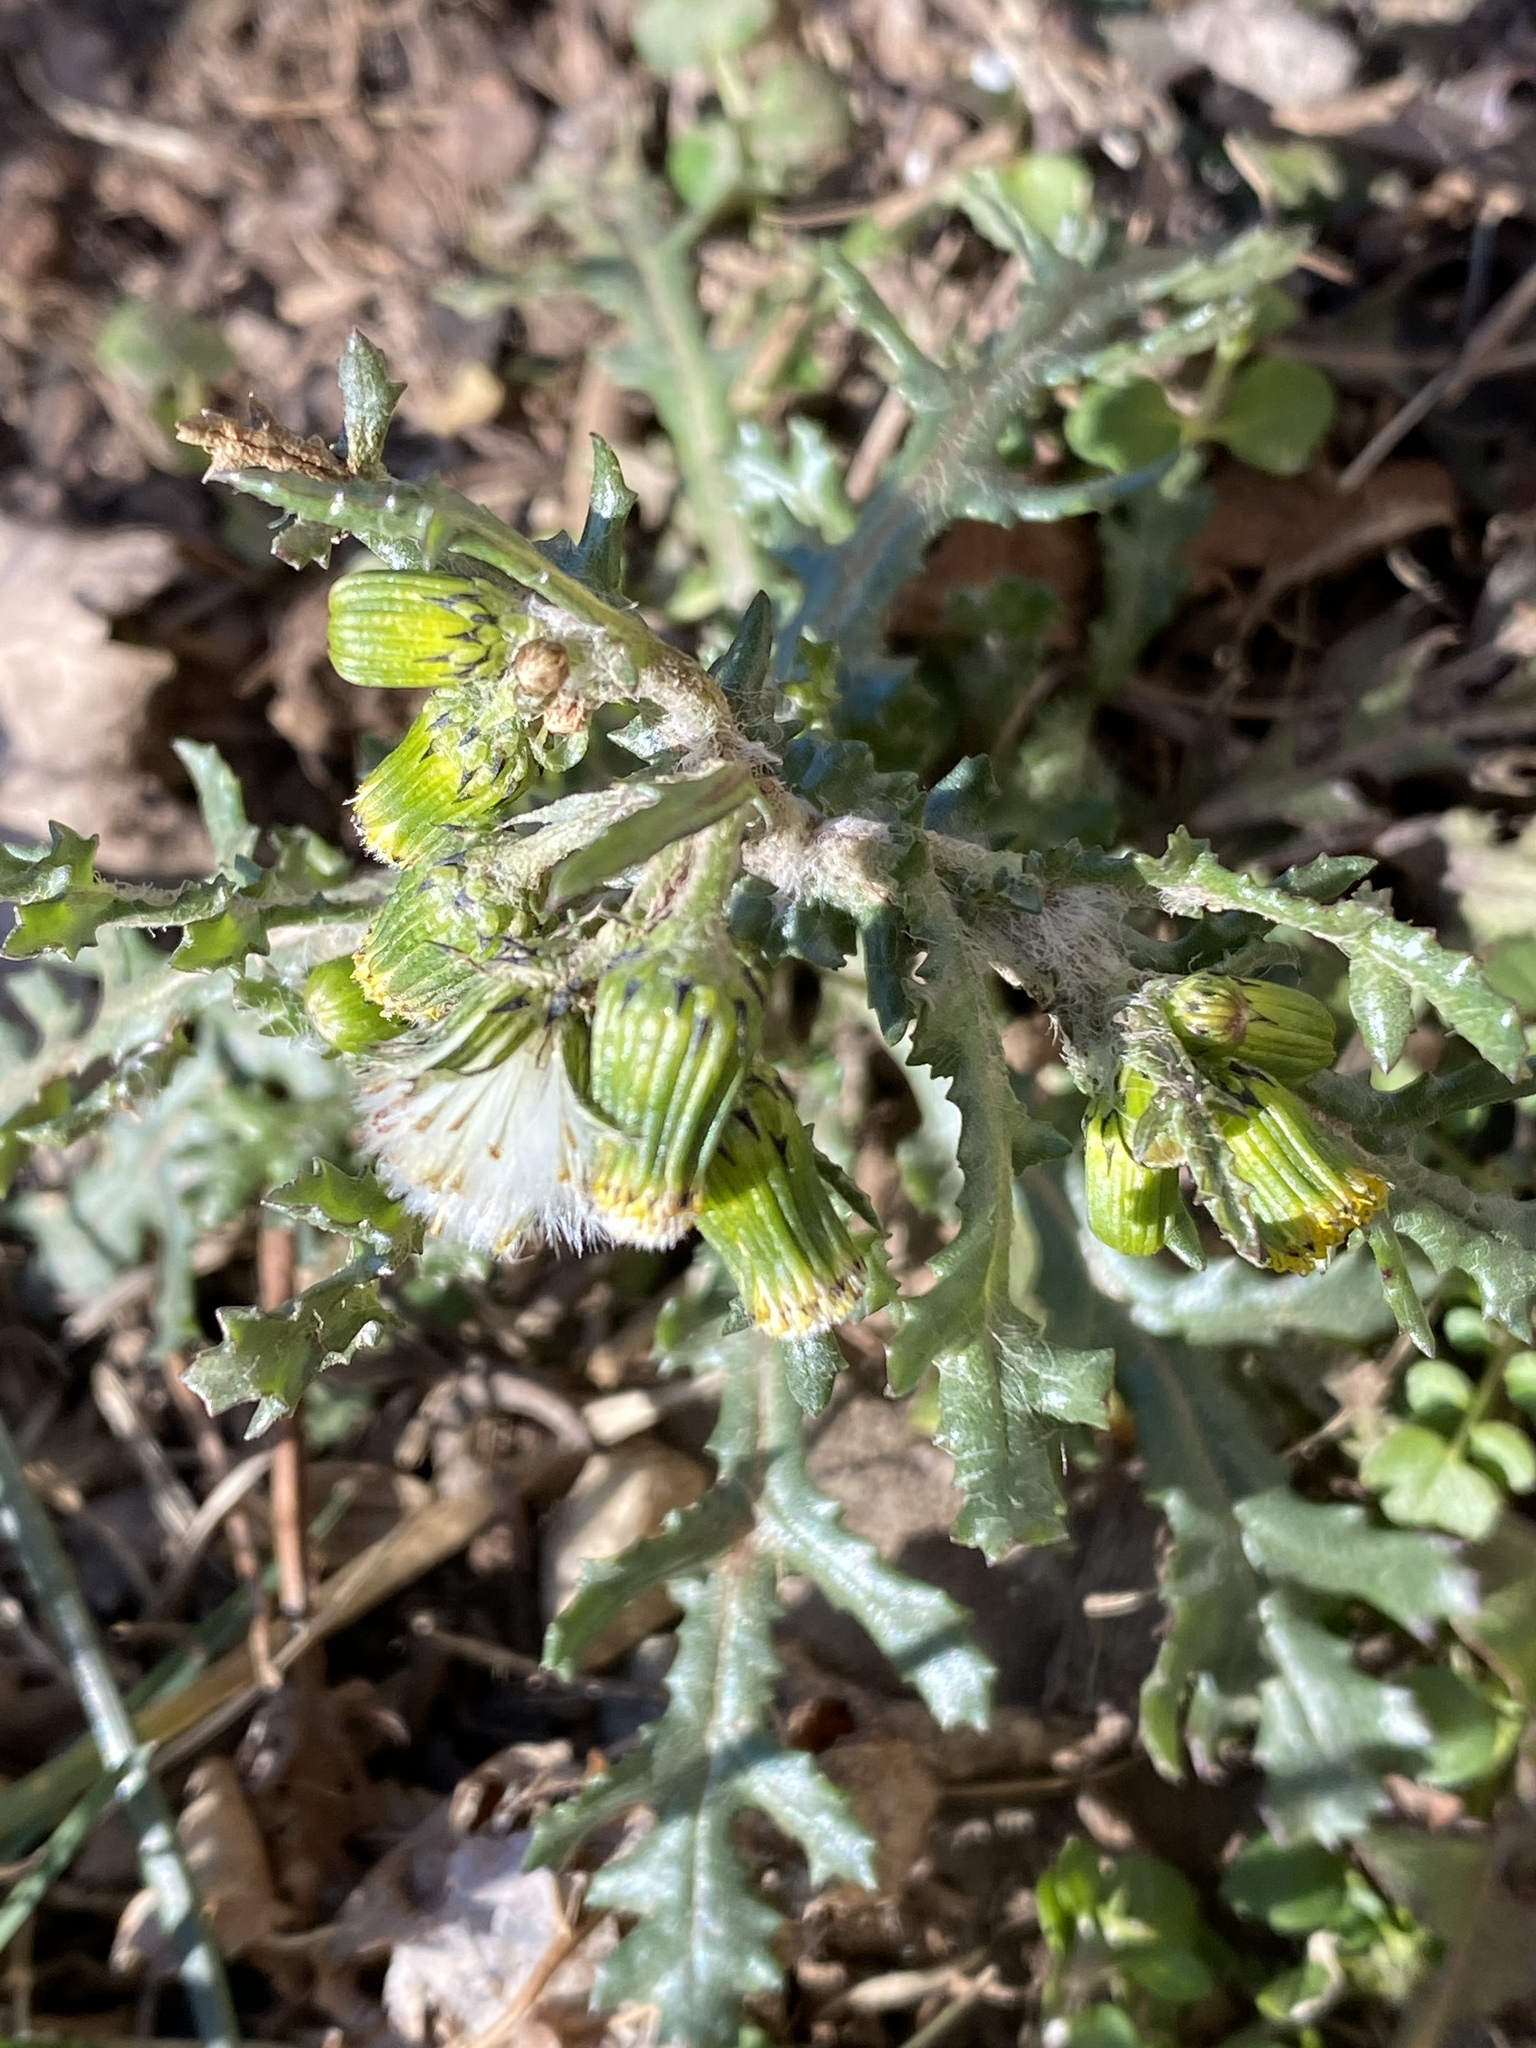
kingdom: Plantae
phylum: Tracheophyta
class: Magnoliopsida
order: Asterales
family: Asteraceae
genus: Senecio
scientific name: Senecio vulgaris
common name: Old-man-in-the-spring
